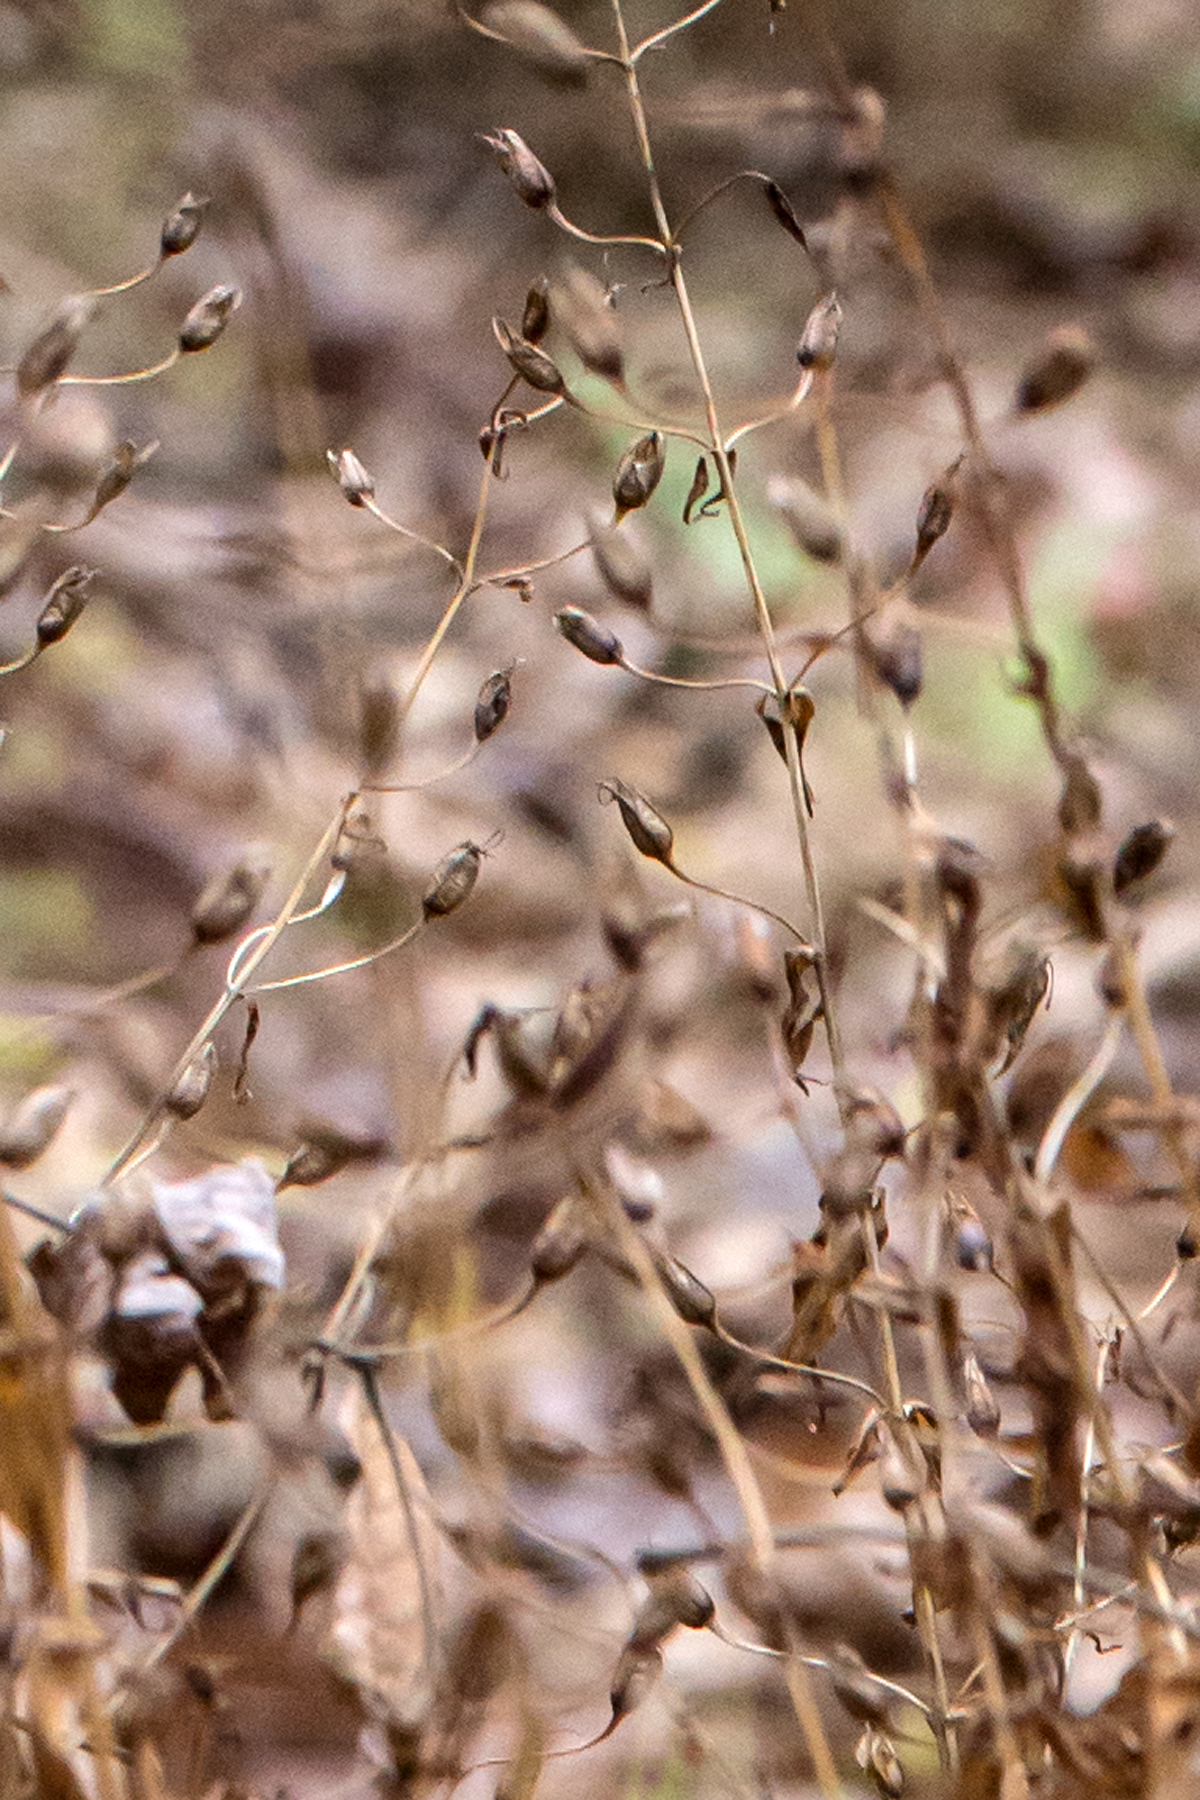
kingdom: Plantae
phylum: Tracheophyta
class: Magnoliopsida
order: Lamiales
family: Phrymaceae
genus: Mimulus
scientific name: Mimulus ringens
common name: Allegheny monkeyflower
